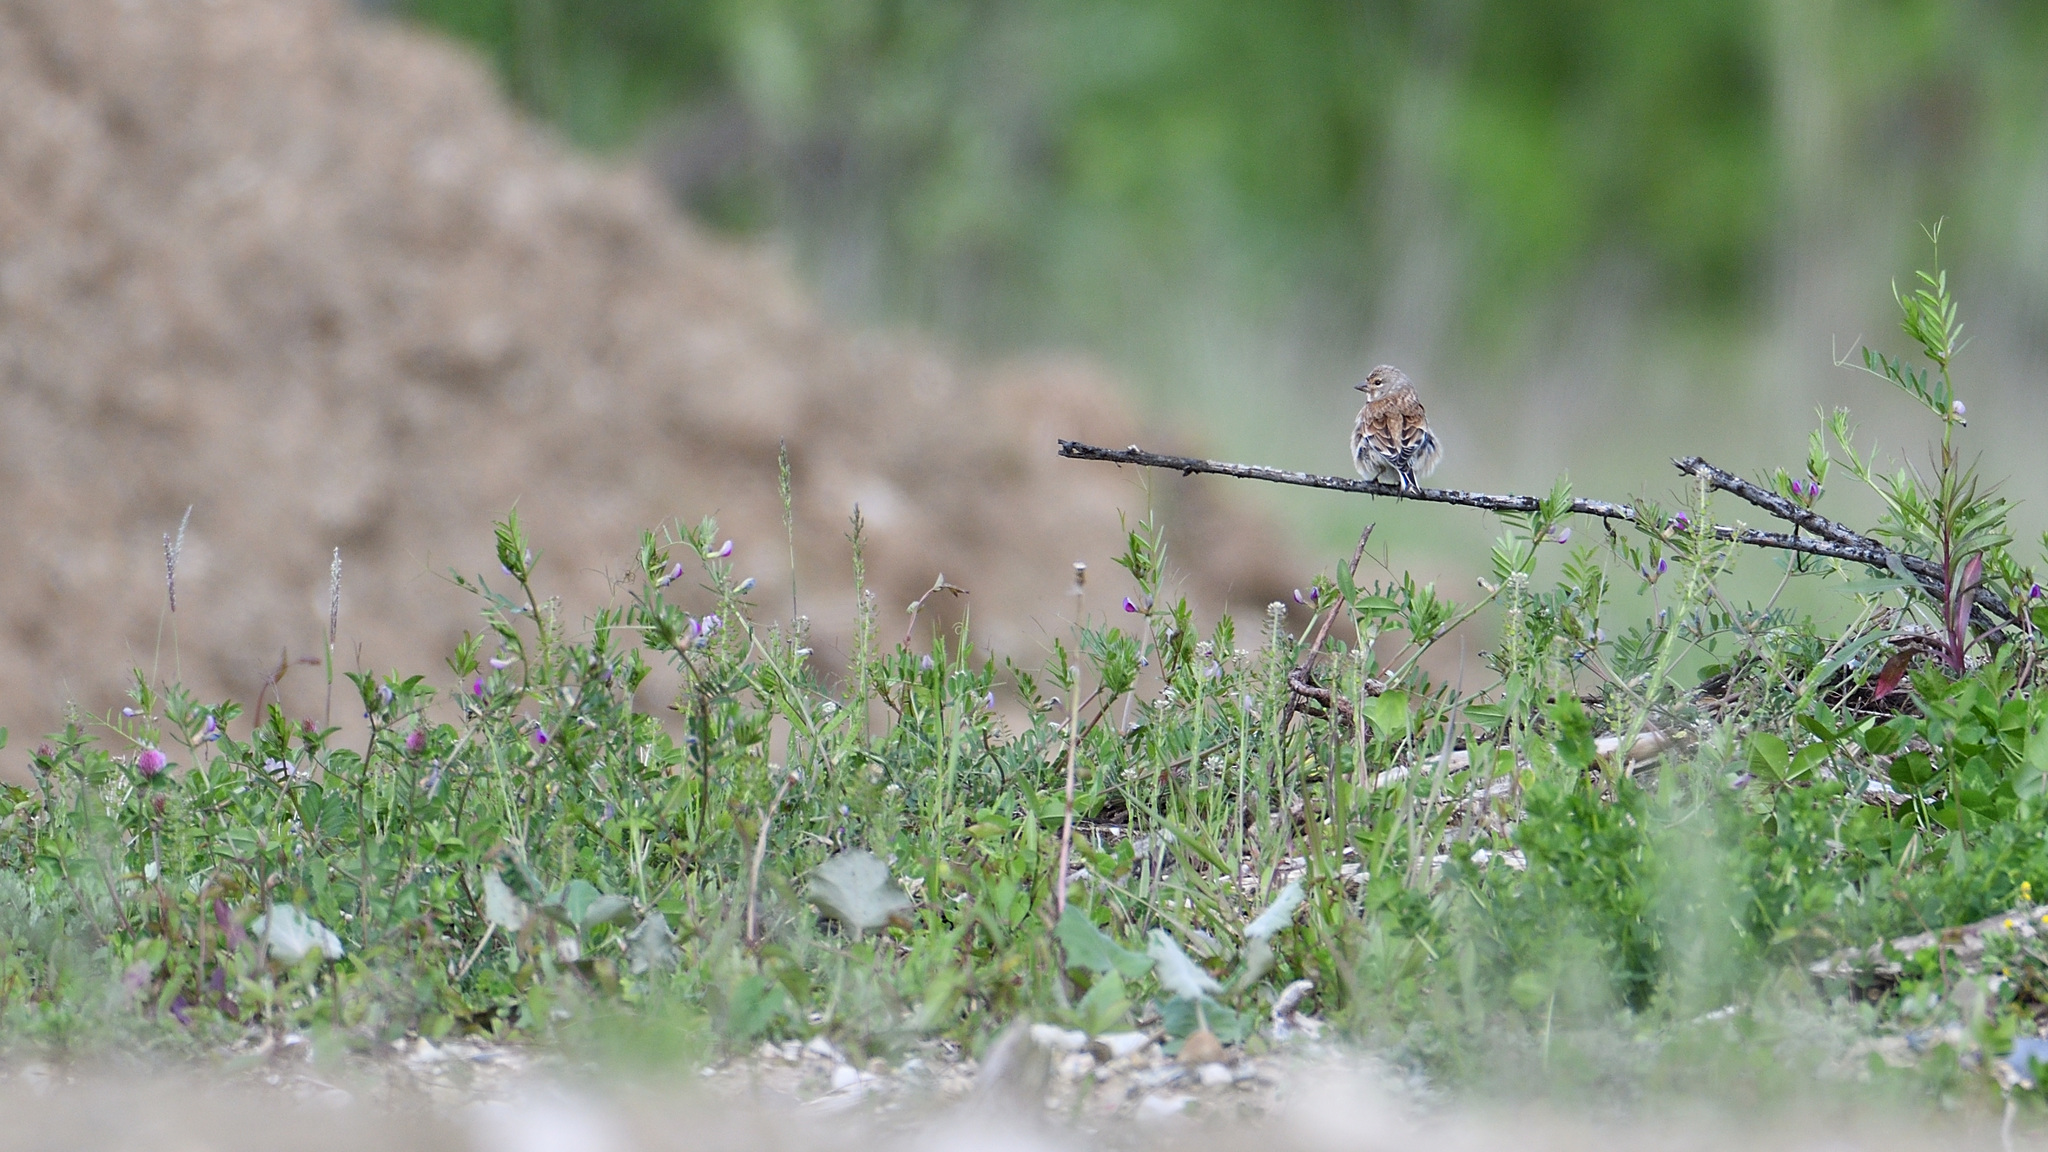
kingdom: Animalia
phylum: Chordata
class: Aves
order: Passeriformes
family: Fringillidae
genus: Linaria
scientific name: Linaria cannabina
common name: Common linnet
